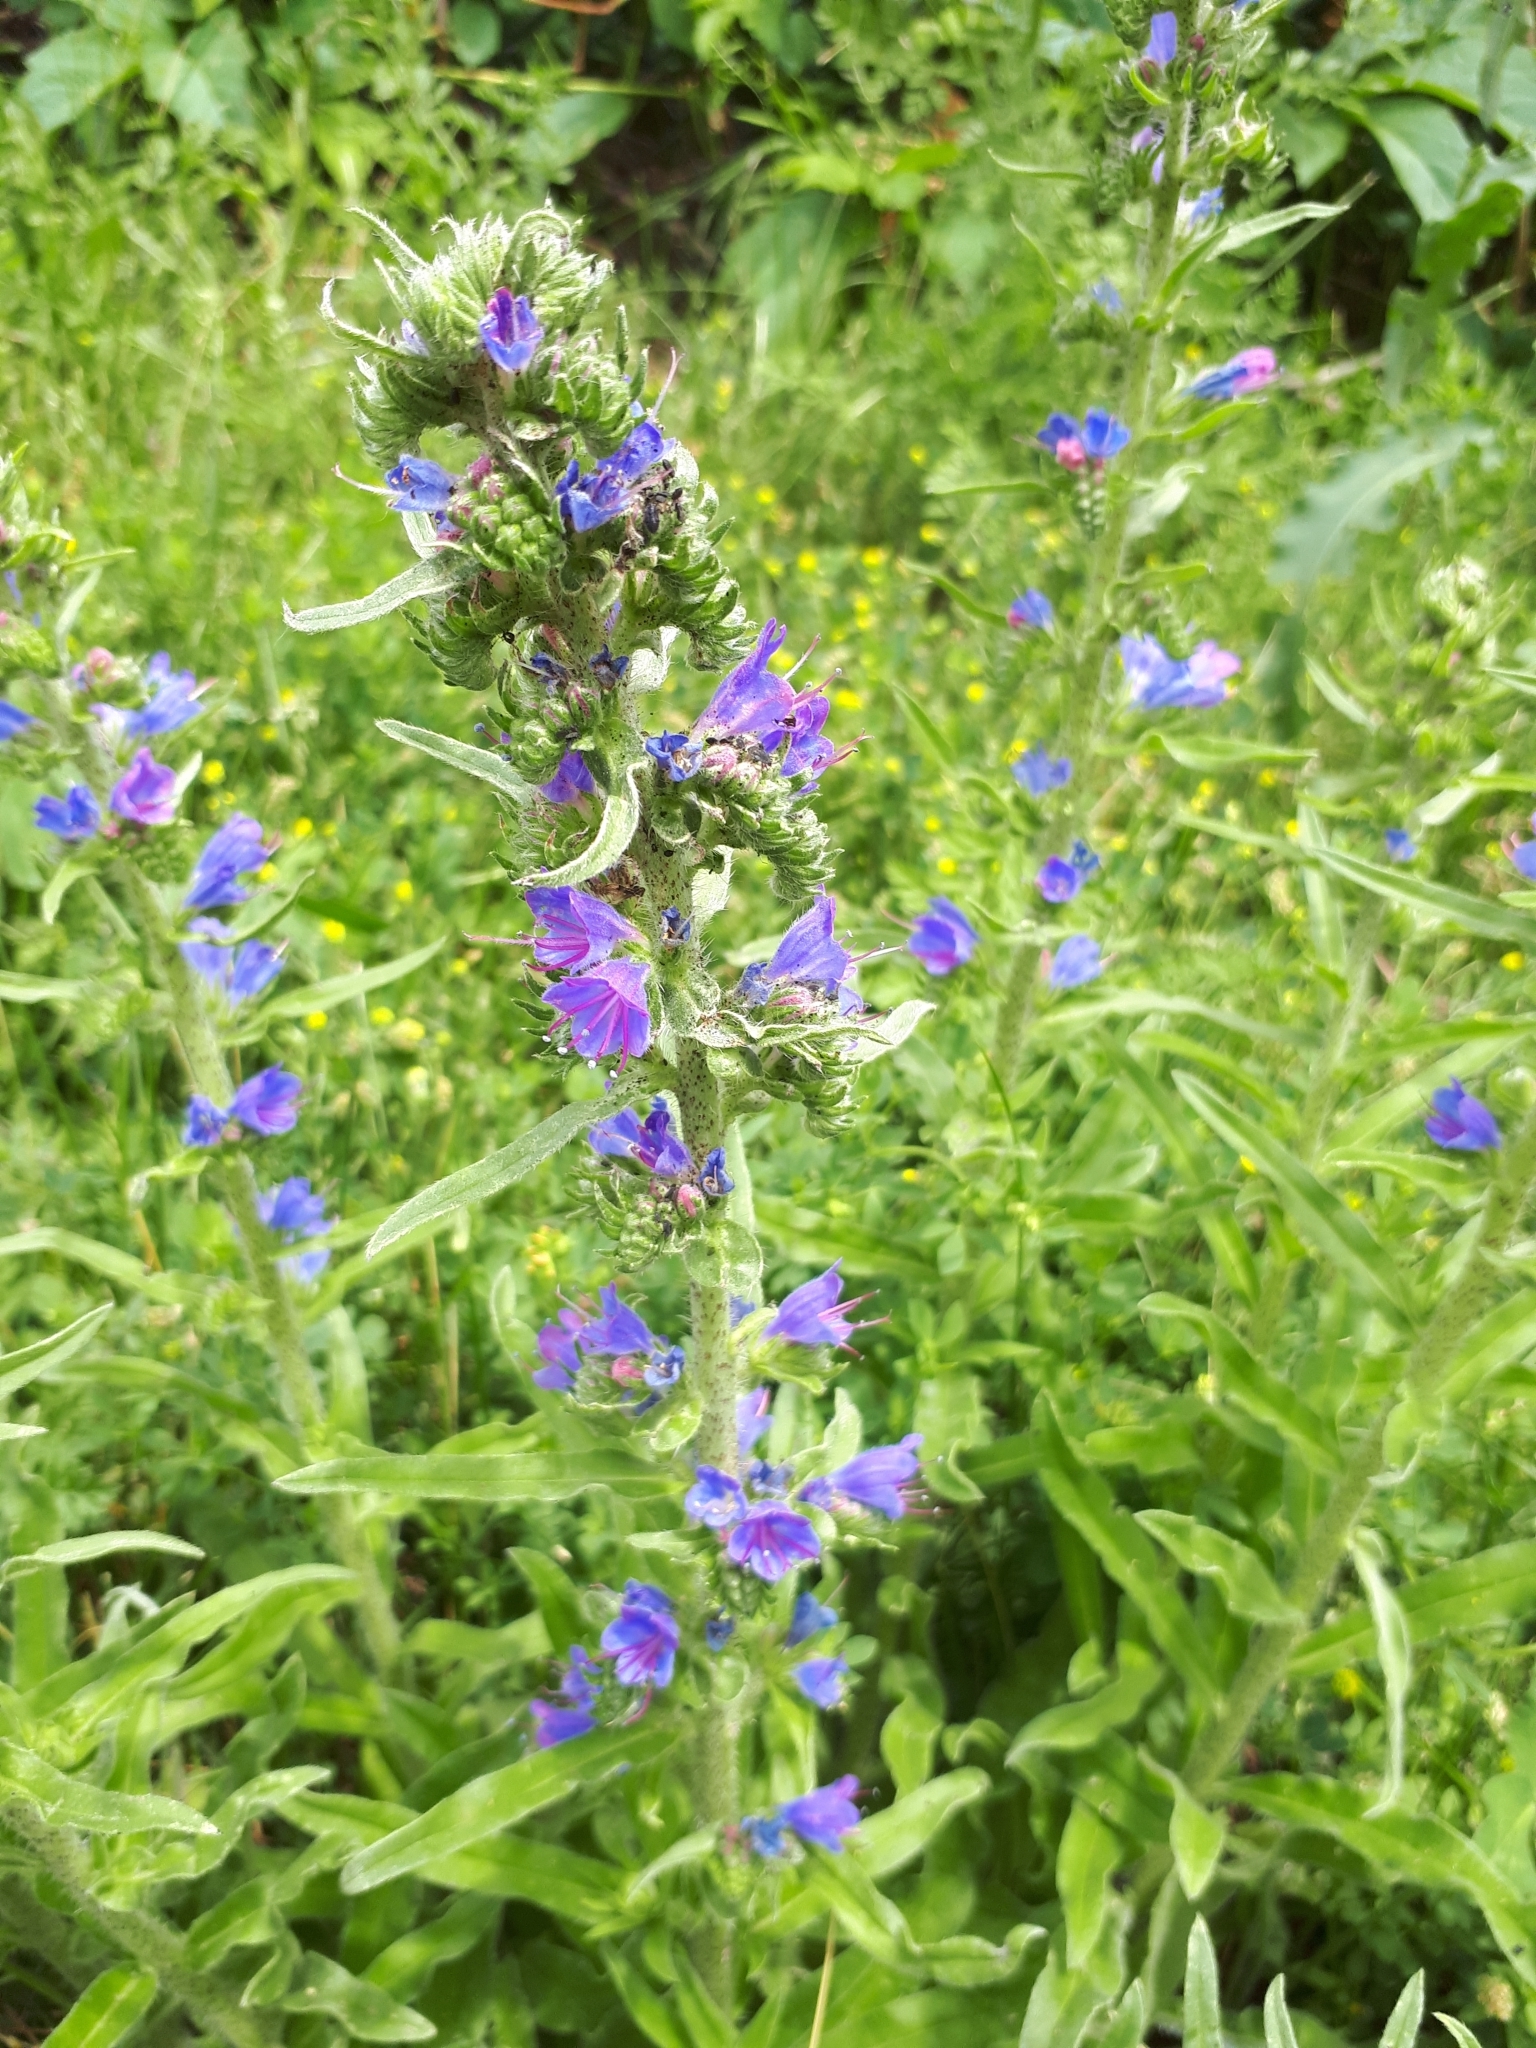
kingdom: Plantae
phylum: Tracheophyta
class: Magnoliopsida
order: Boraginales
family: Boraginaceae
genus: Echium
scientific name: Echium vulgare
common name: Common viper's bugloss
